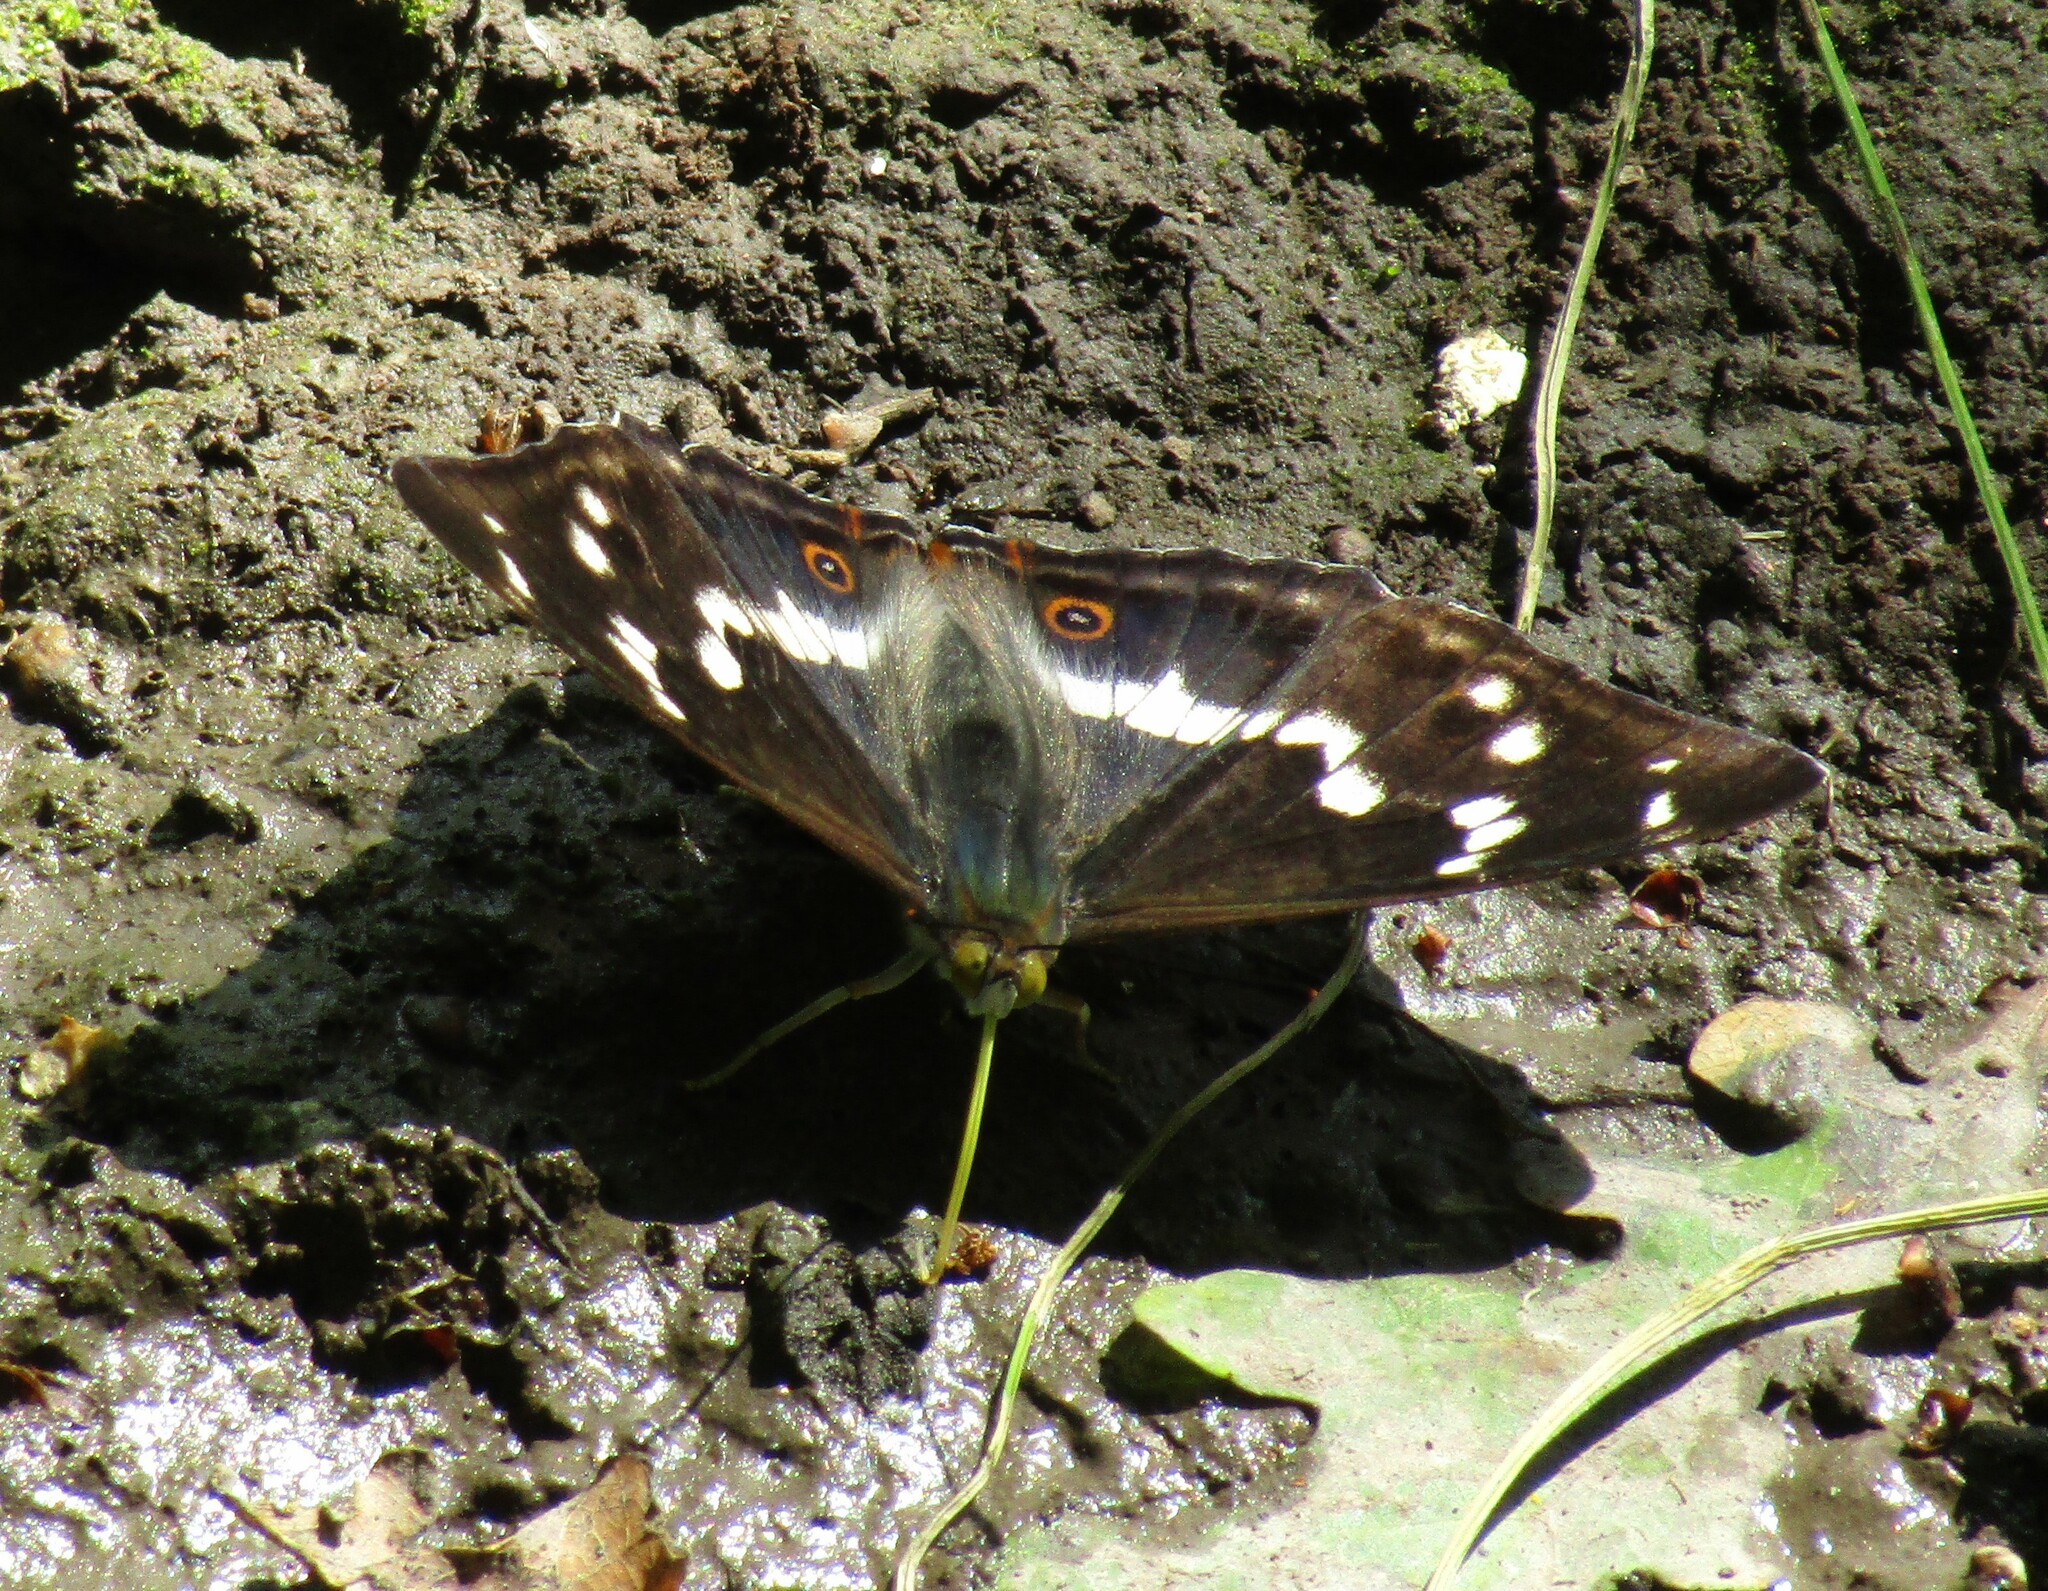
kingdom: Animalia
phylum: Arthropoda
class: Insecta
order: Lepidoptera
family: Nymphalidae
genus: Apatura
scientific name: Apatura iris
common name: Purple emperor
